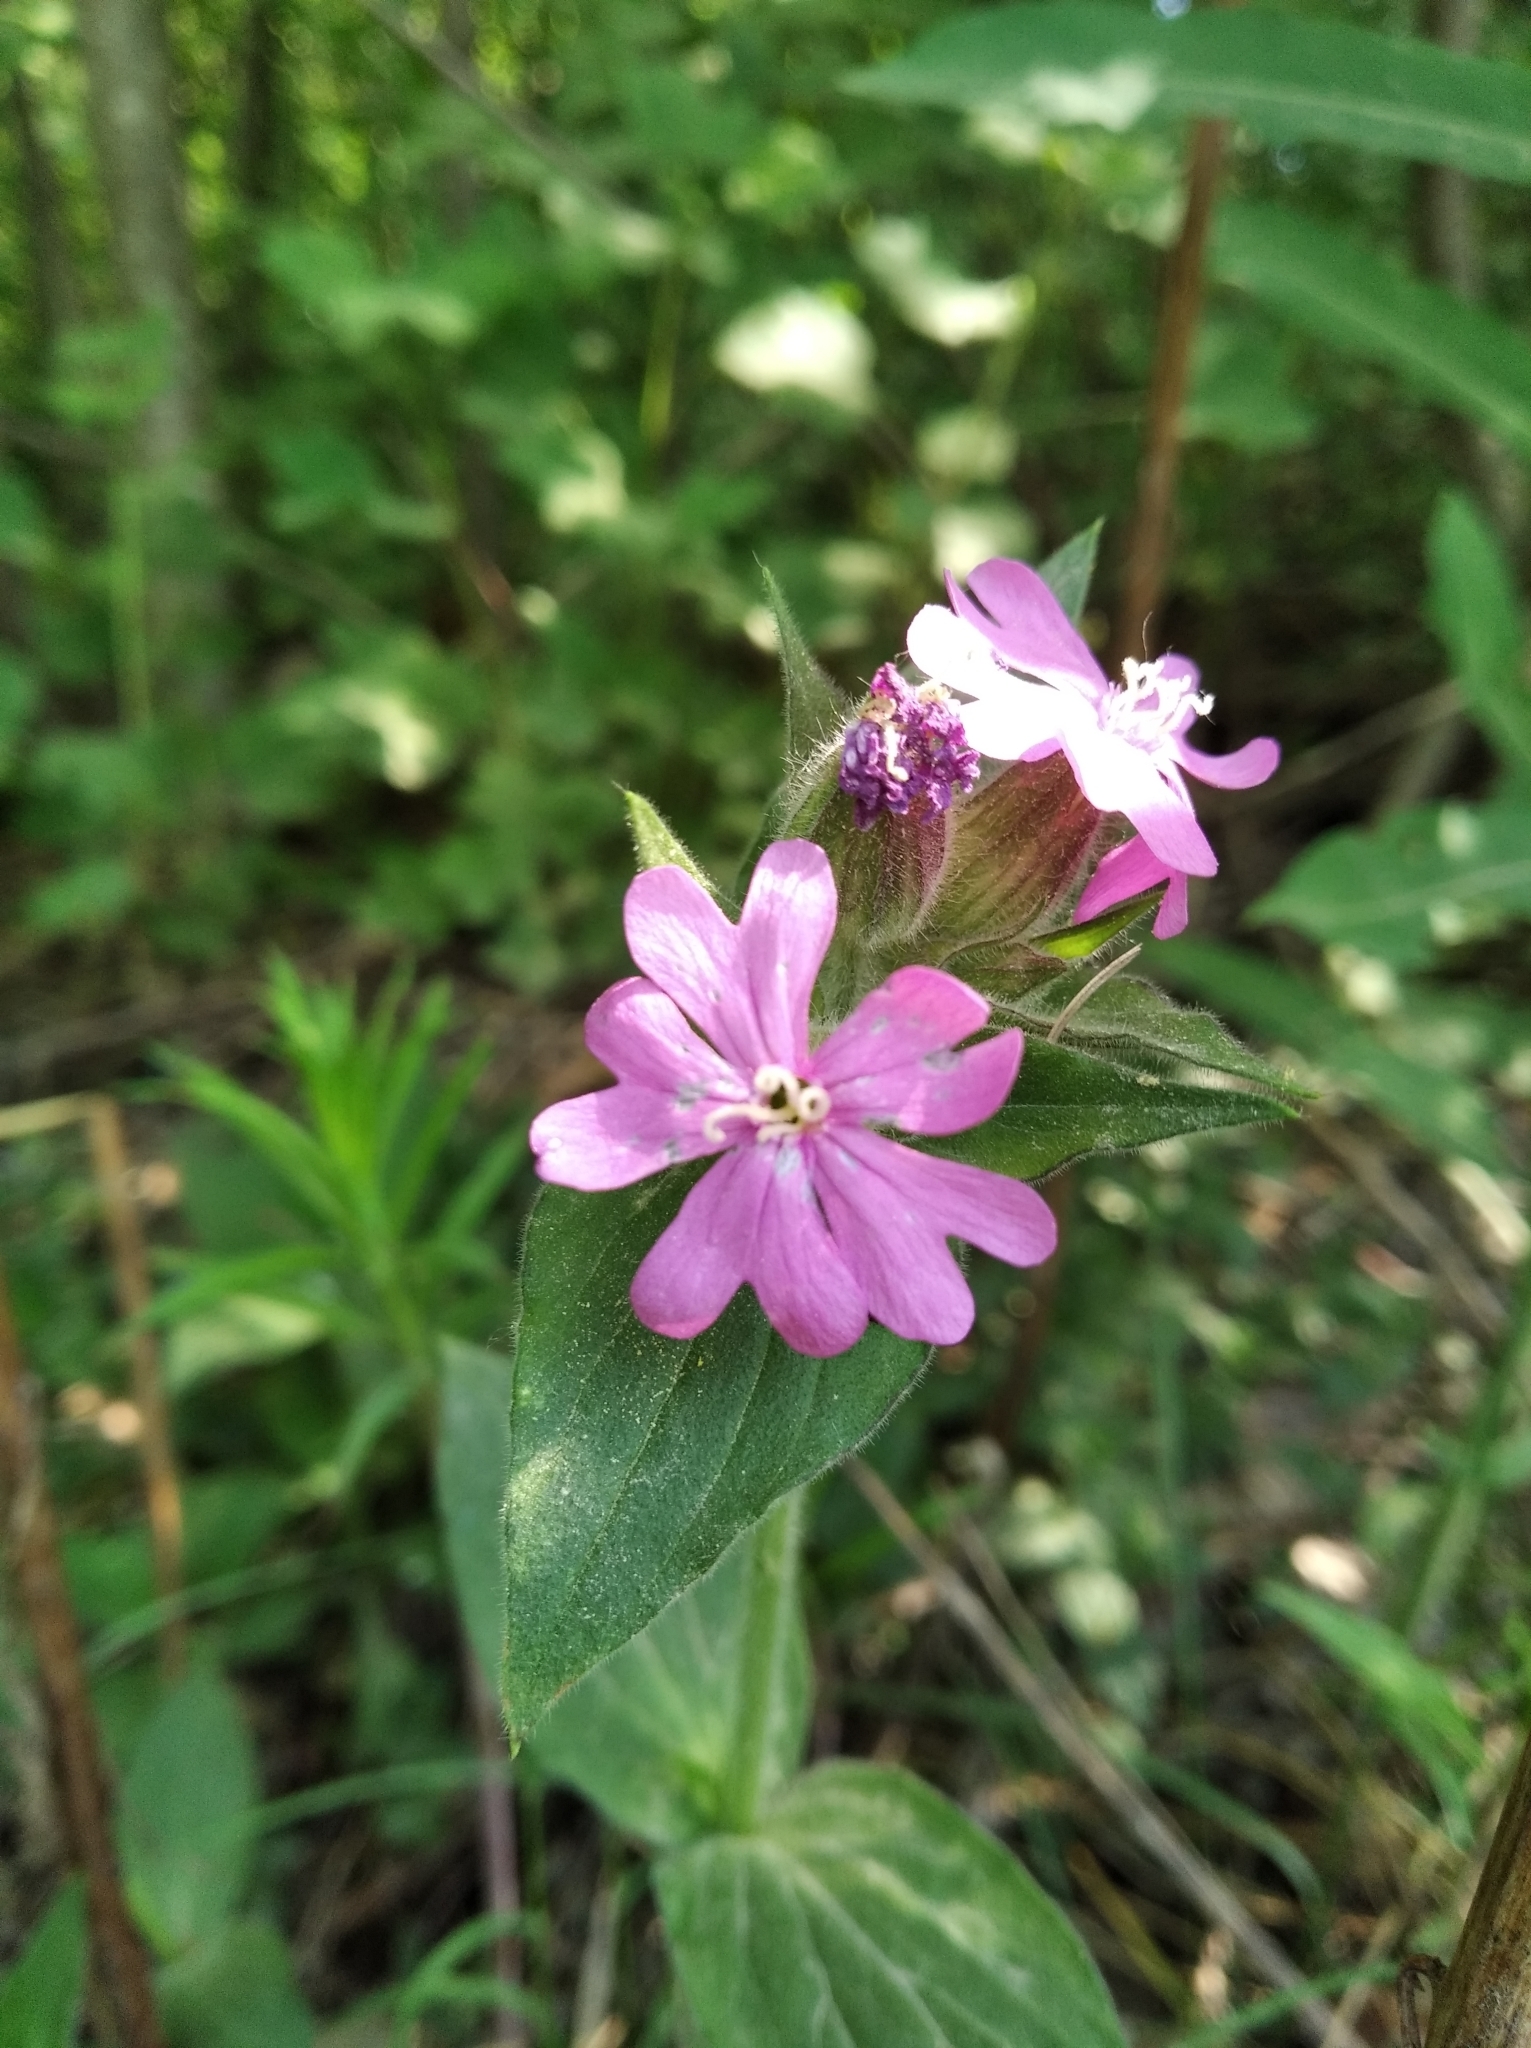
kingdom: Plantae
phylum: Tracheophyta
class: Magnoliopsida
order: Caryophyllales
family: Caryophyllaceae
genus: Silene
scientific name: Silene dioica
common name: Red campion
